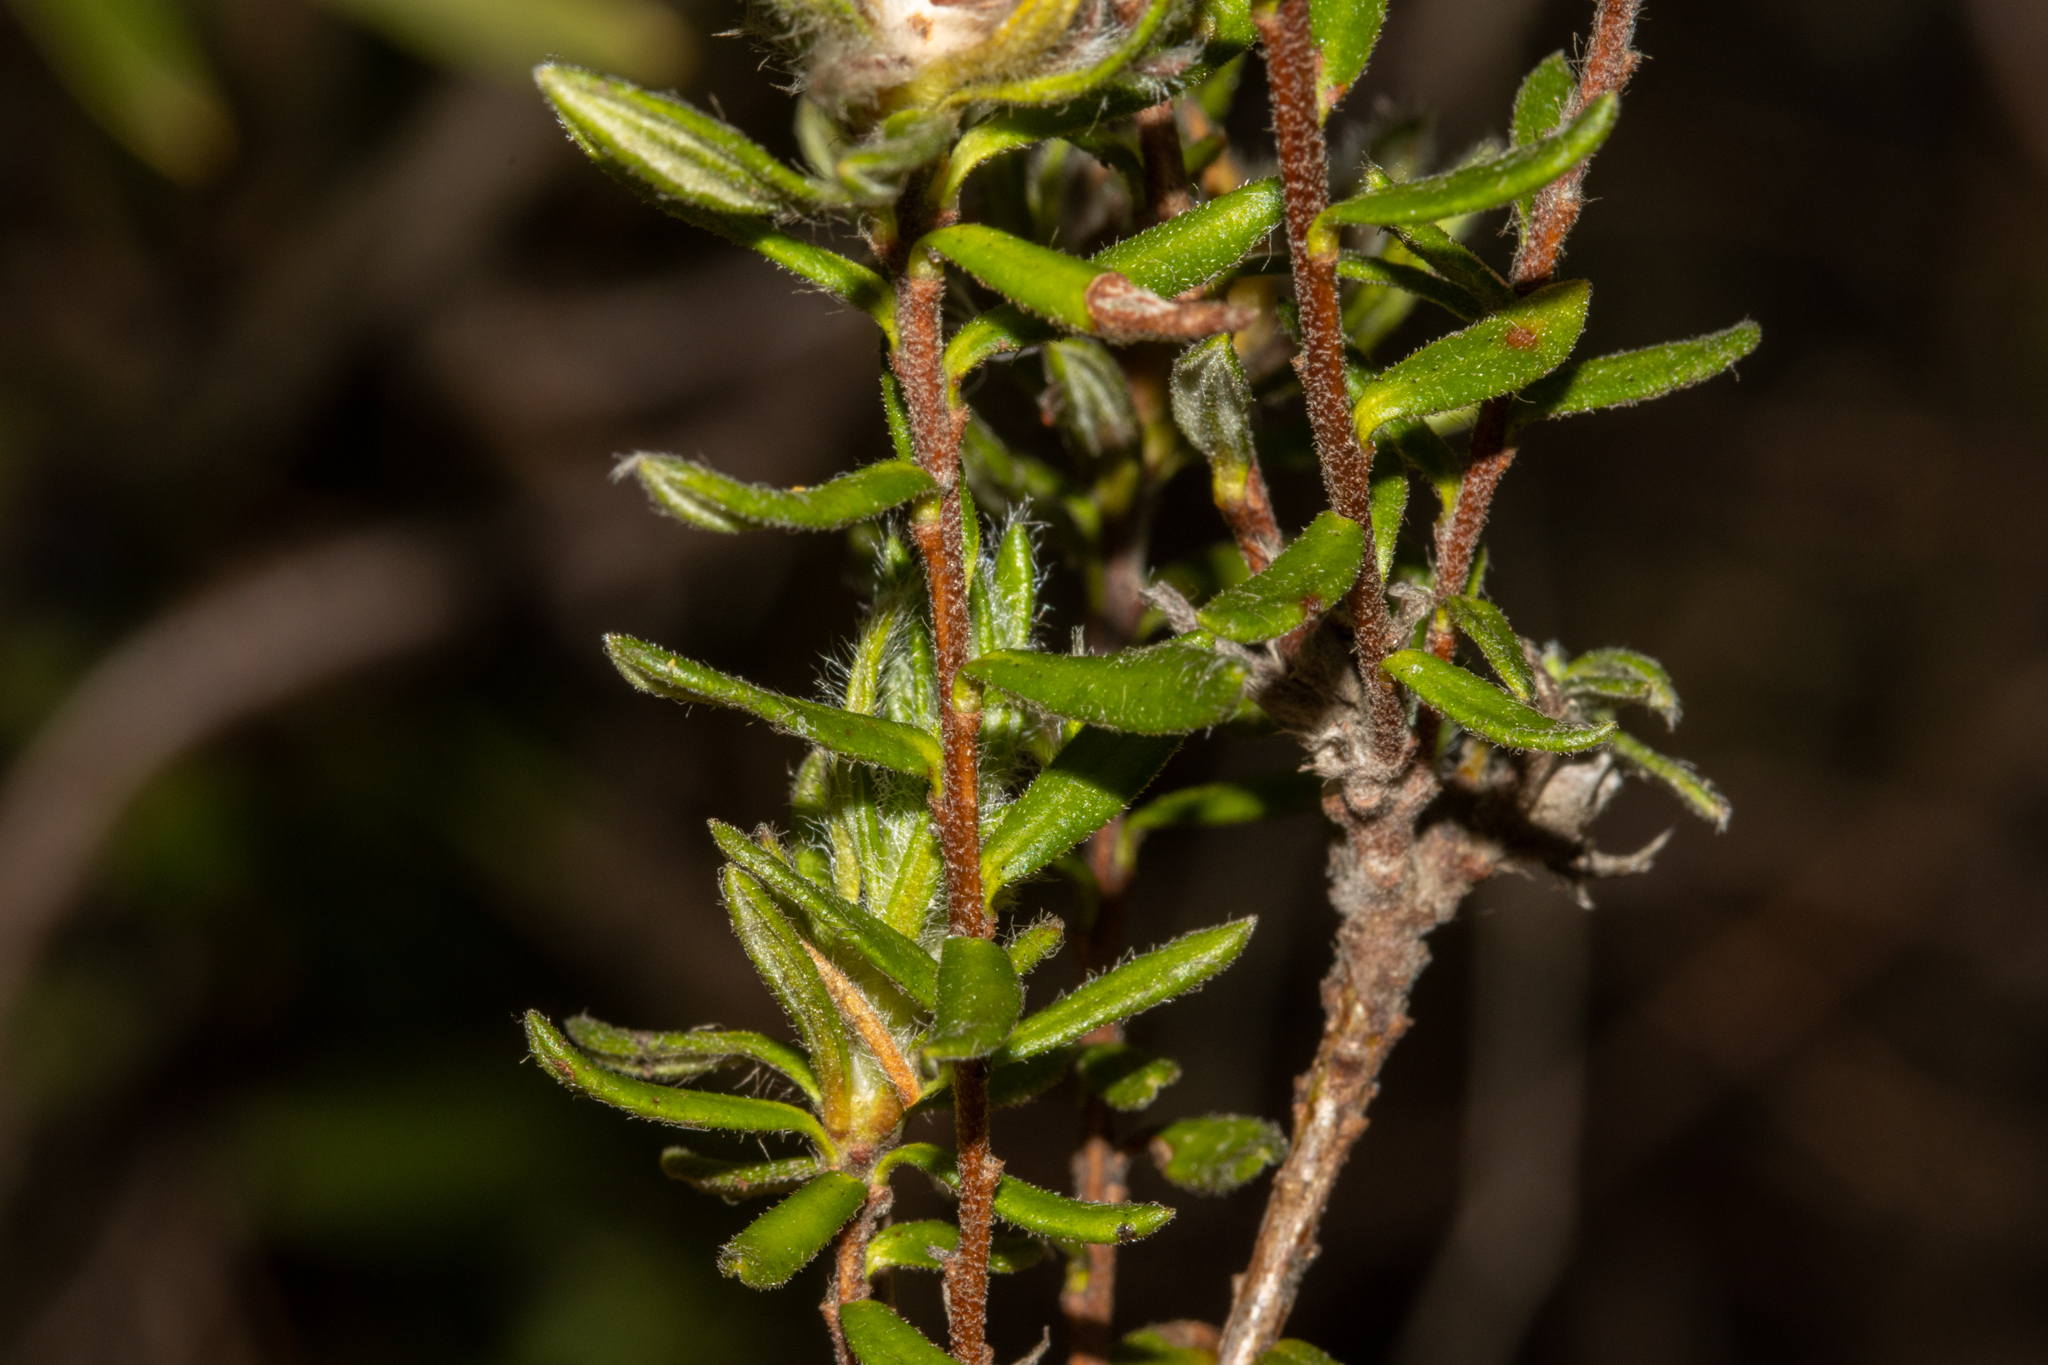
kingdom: Plantae
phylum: Tracheophyta
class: Magnoliopsida
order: Dilleniales
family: Dilleniaceae
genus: Hibbertia
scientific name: Hibbertia villifera
